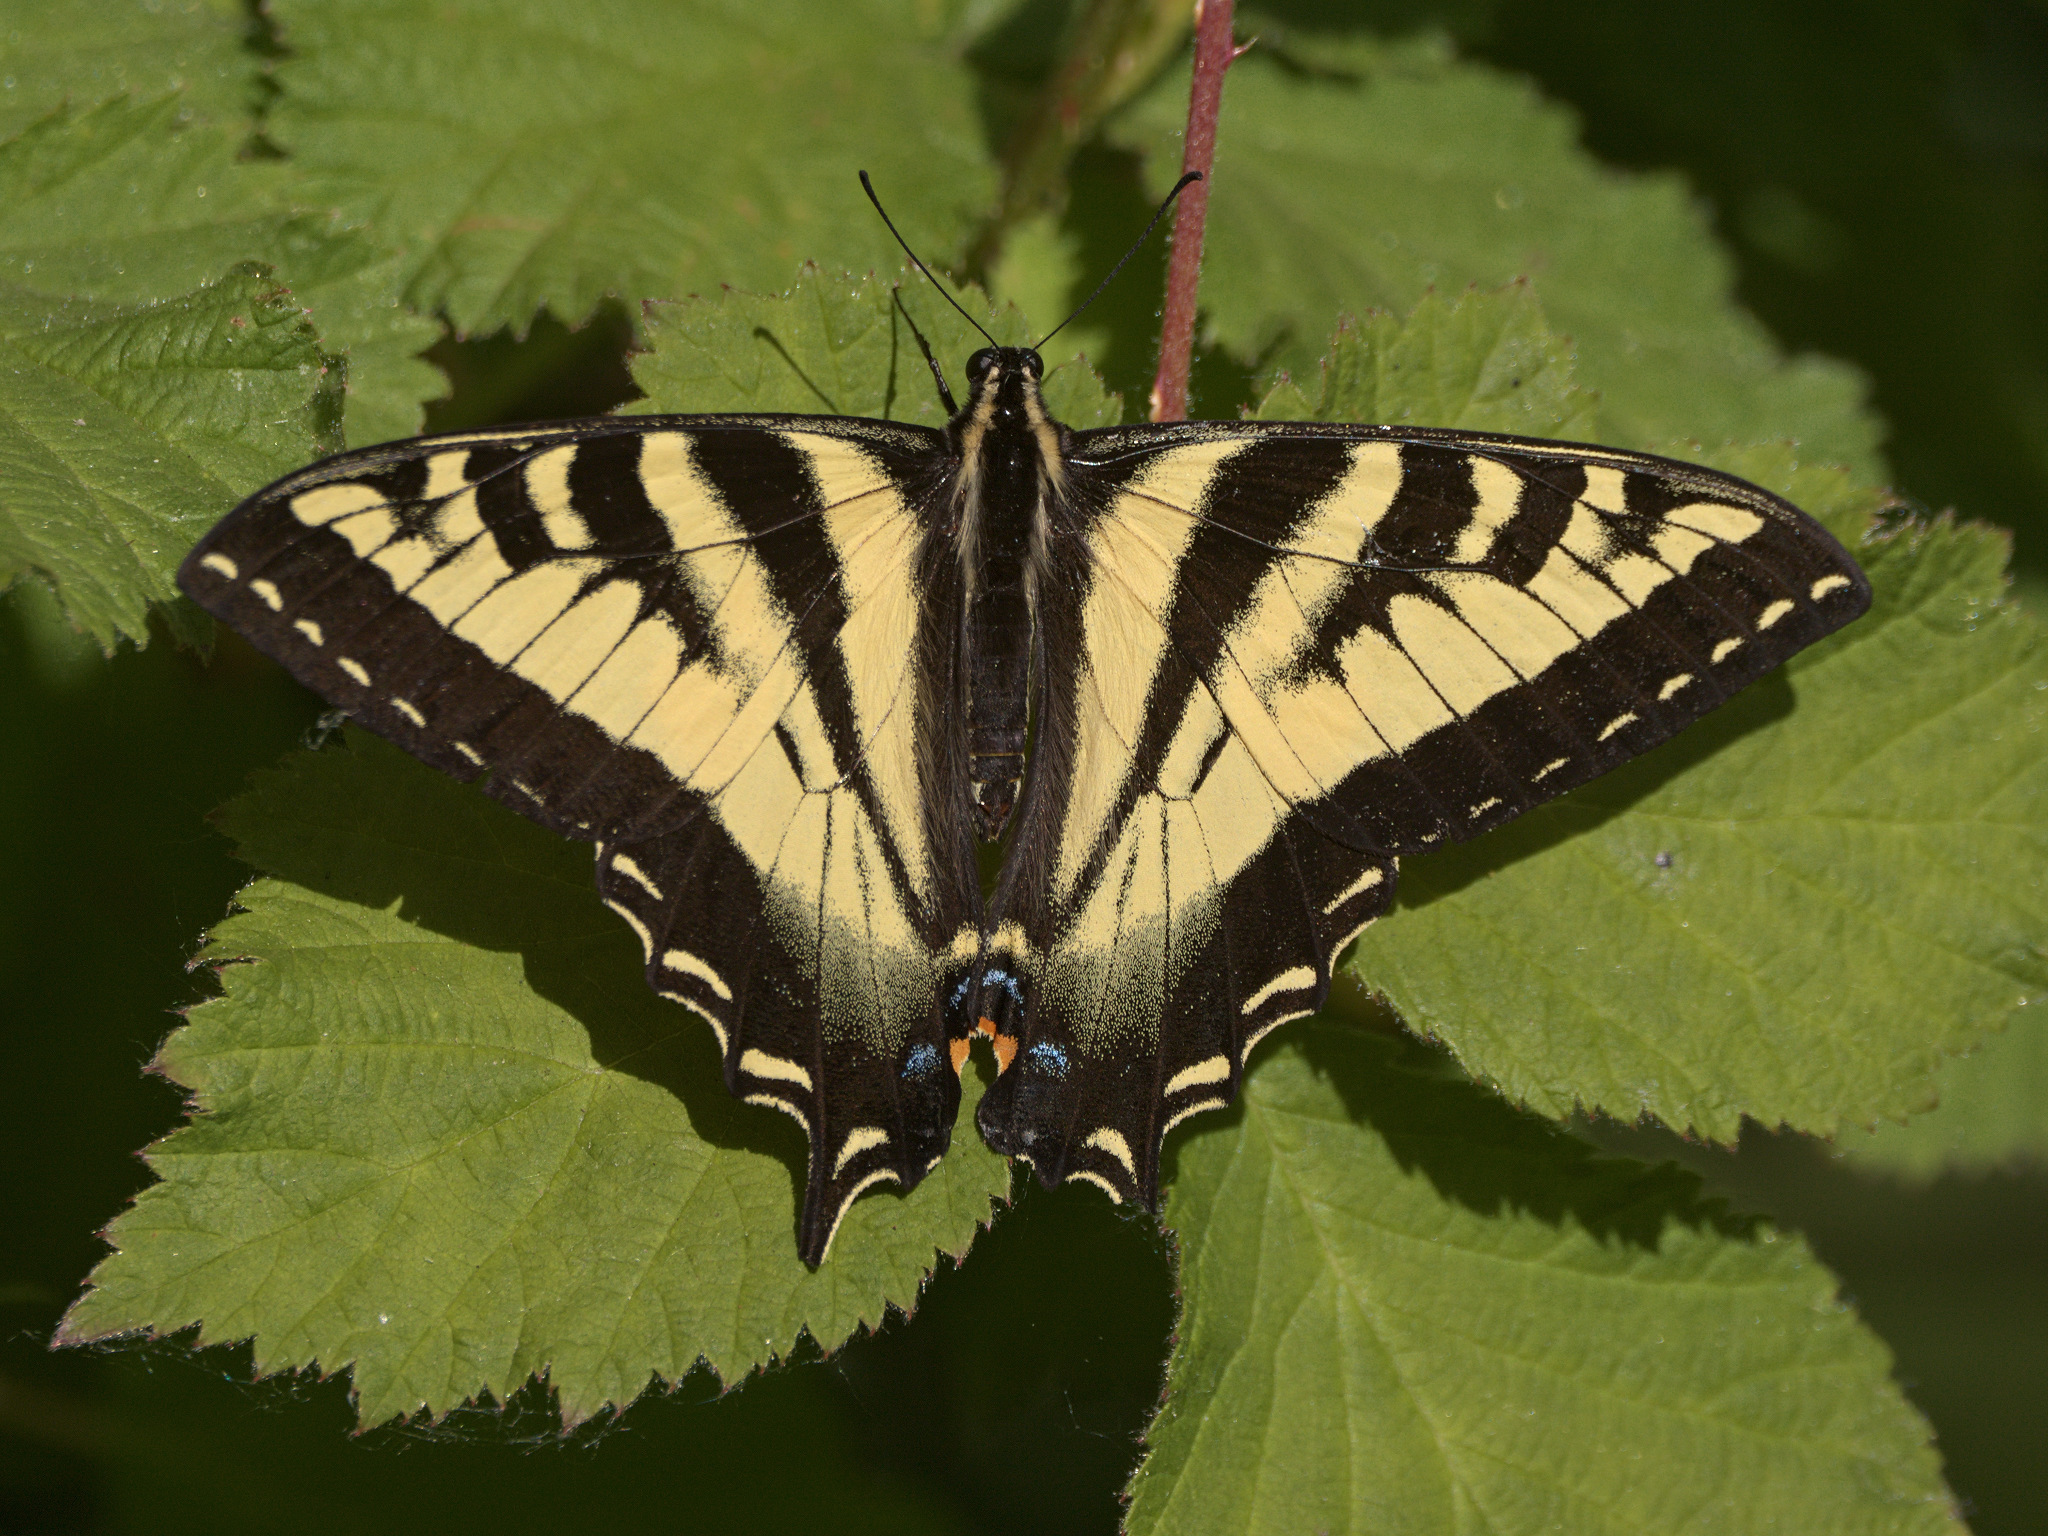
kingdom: Animalia
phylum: Arthropoda
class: Insecta
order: Lepidoptera
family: Papilionidae
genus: Papilio
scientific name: Papilio rutulus
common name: Western tiger swallowtail
